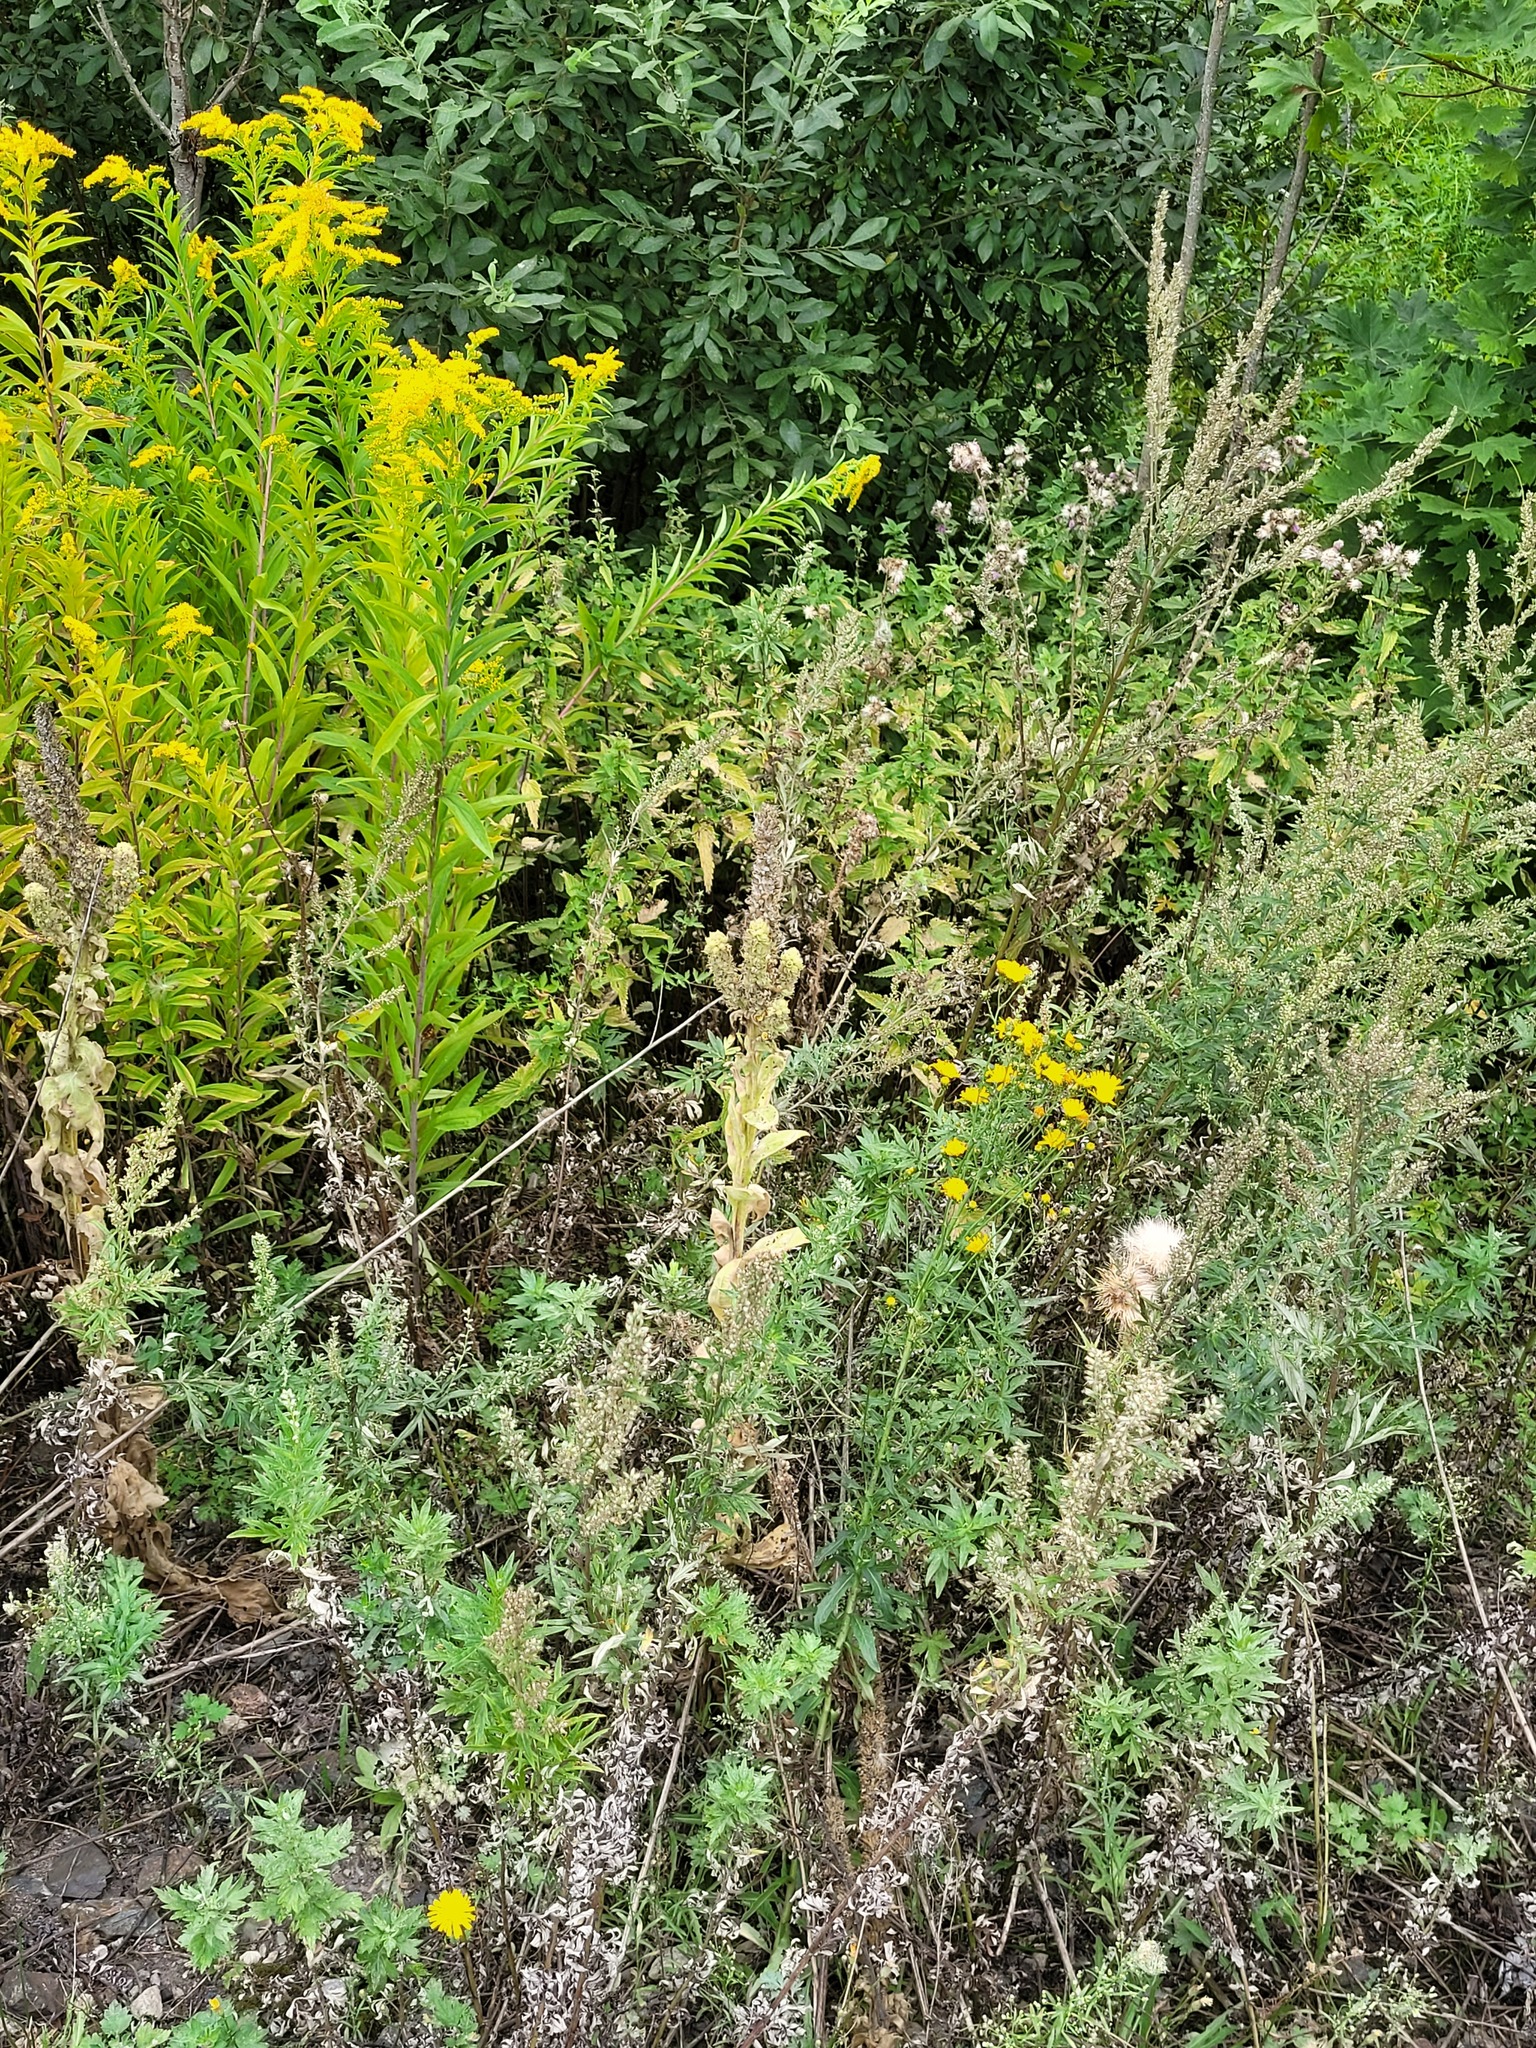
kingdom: Plantae
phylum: Tracheophyta
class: Magnoliopsida
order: Lamiales
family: Scrophulariaceae
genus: Verbascum
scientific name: Verbascum thapsus
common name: Common mullein
